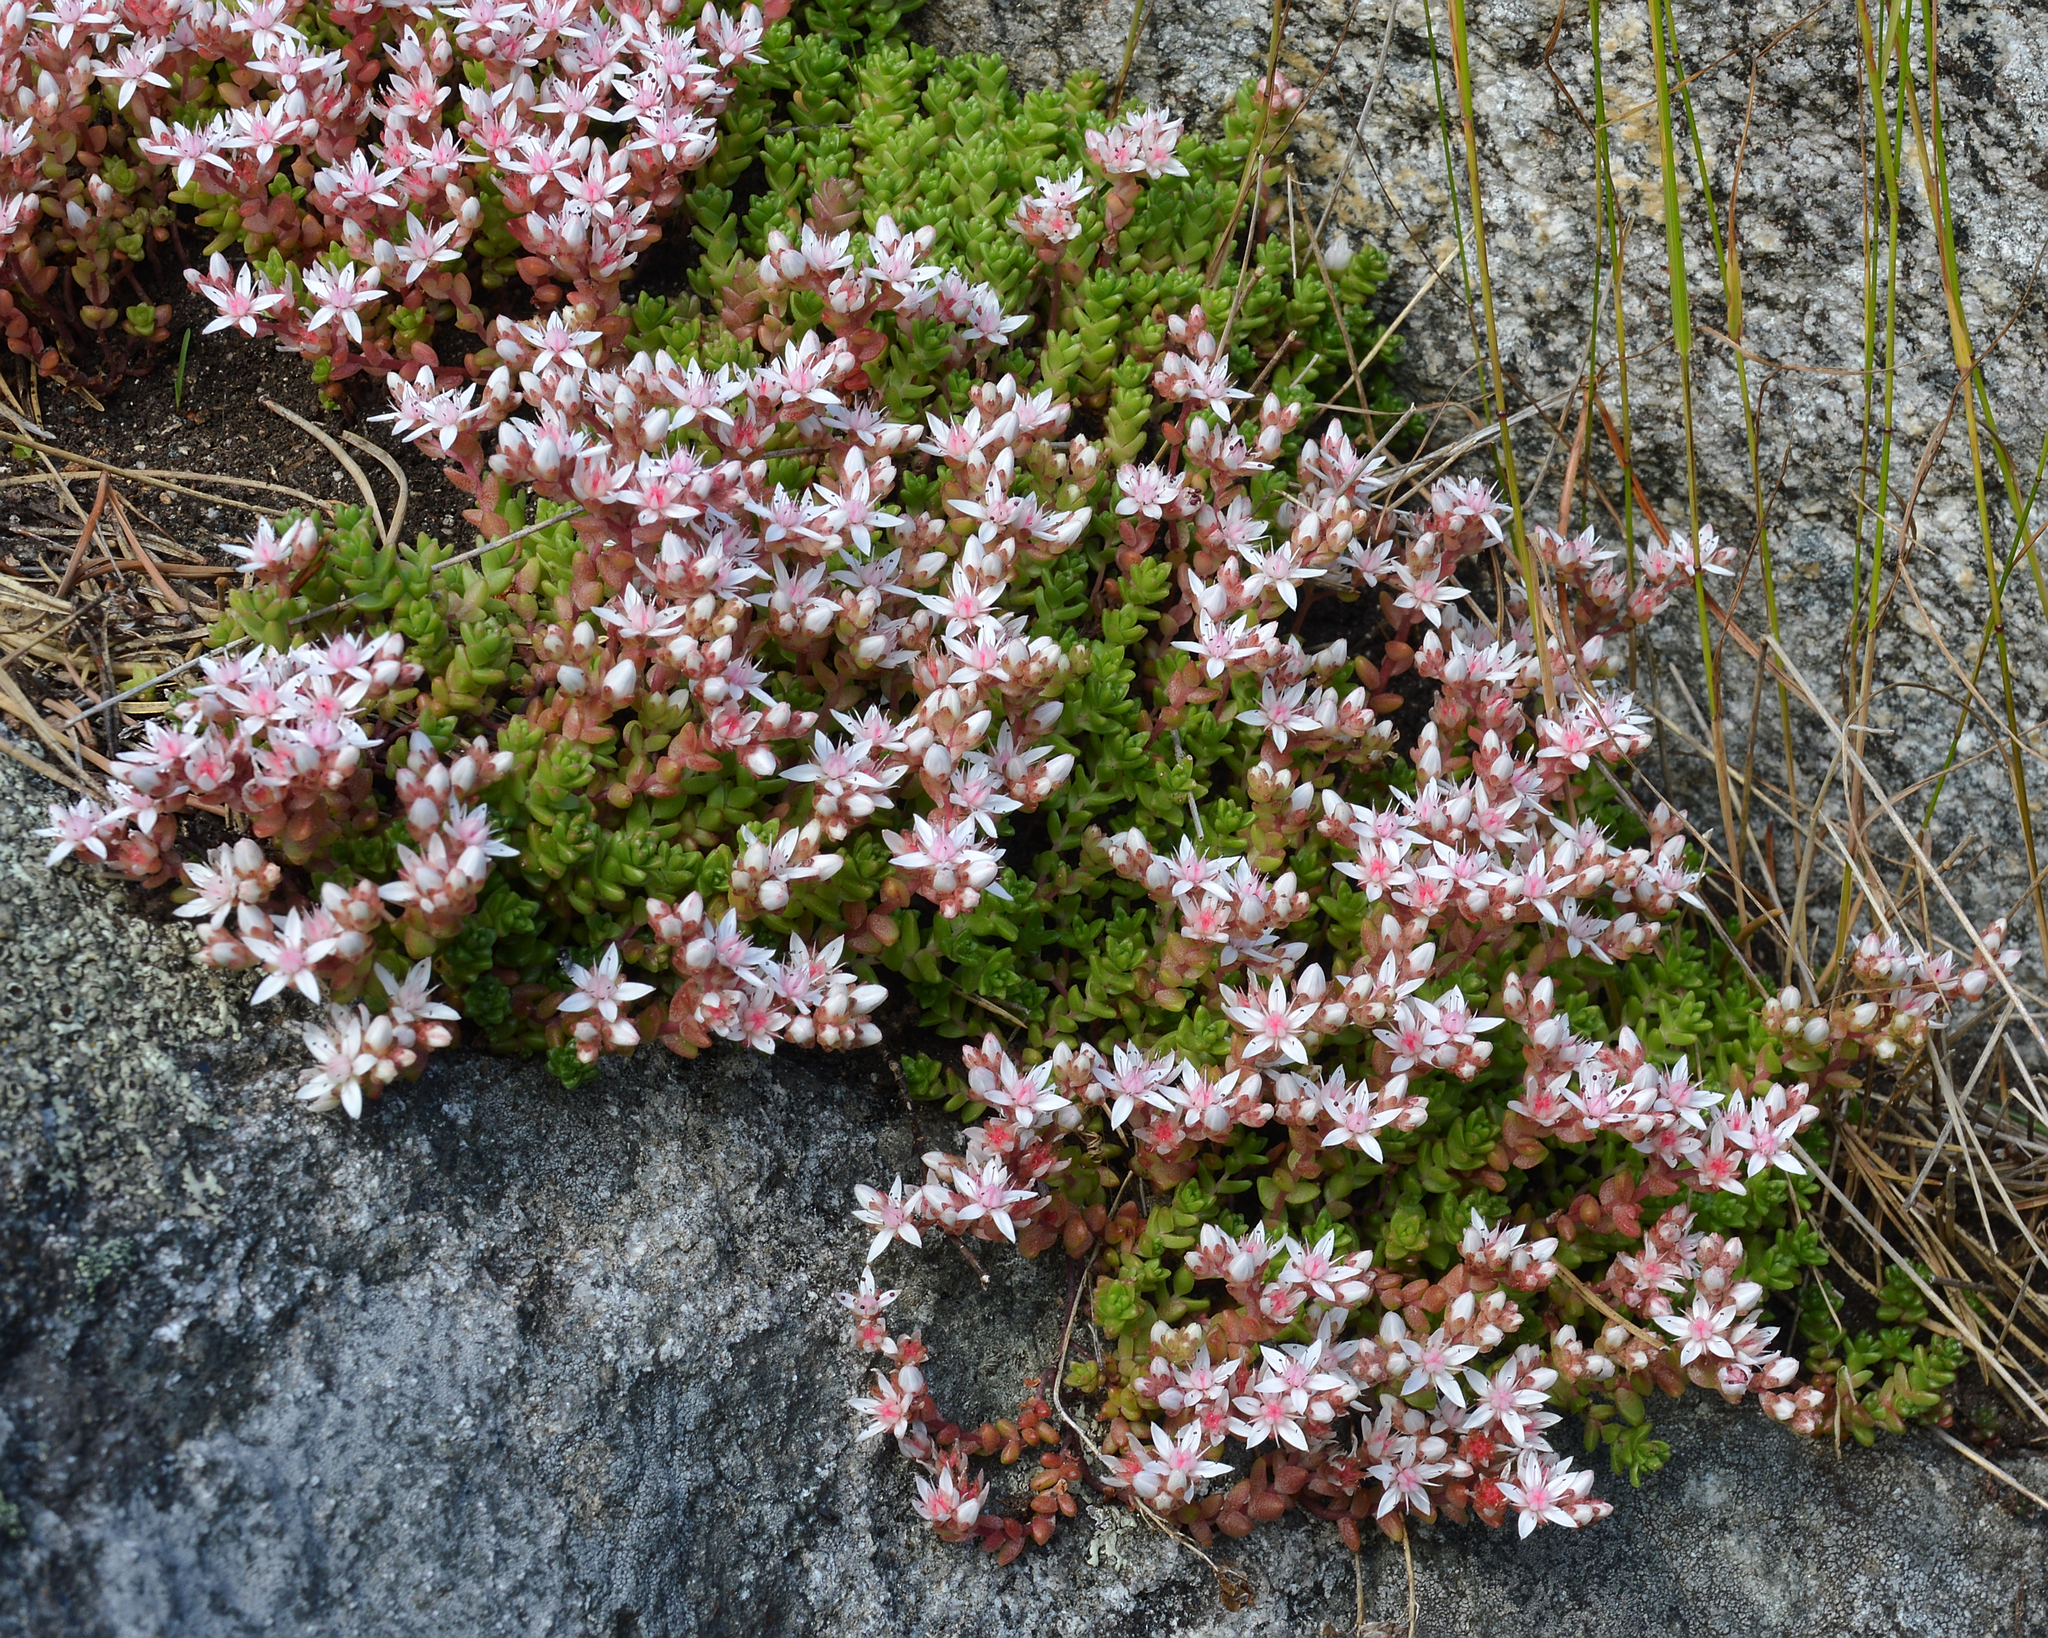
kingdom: Plantae
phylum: Tracheophyta
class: Magnoliopsida
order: Saxifragales
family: Crassulaceae
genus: Sedum
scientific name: Sedum anglicum
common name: English stonecrop
